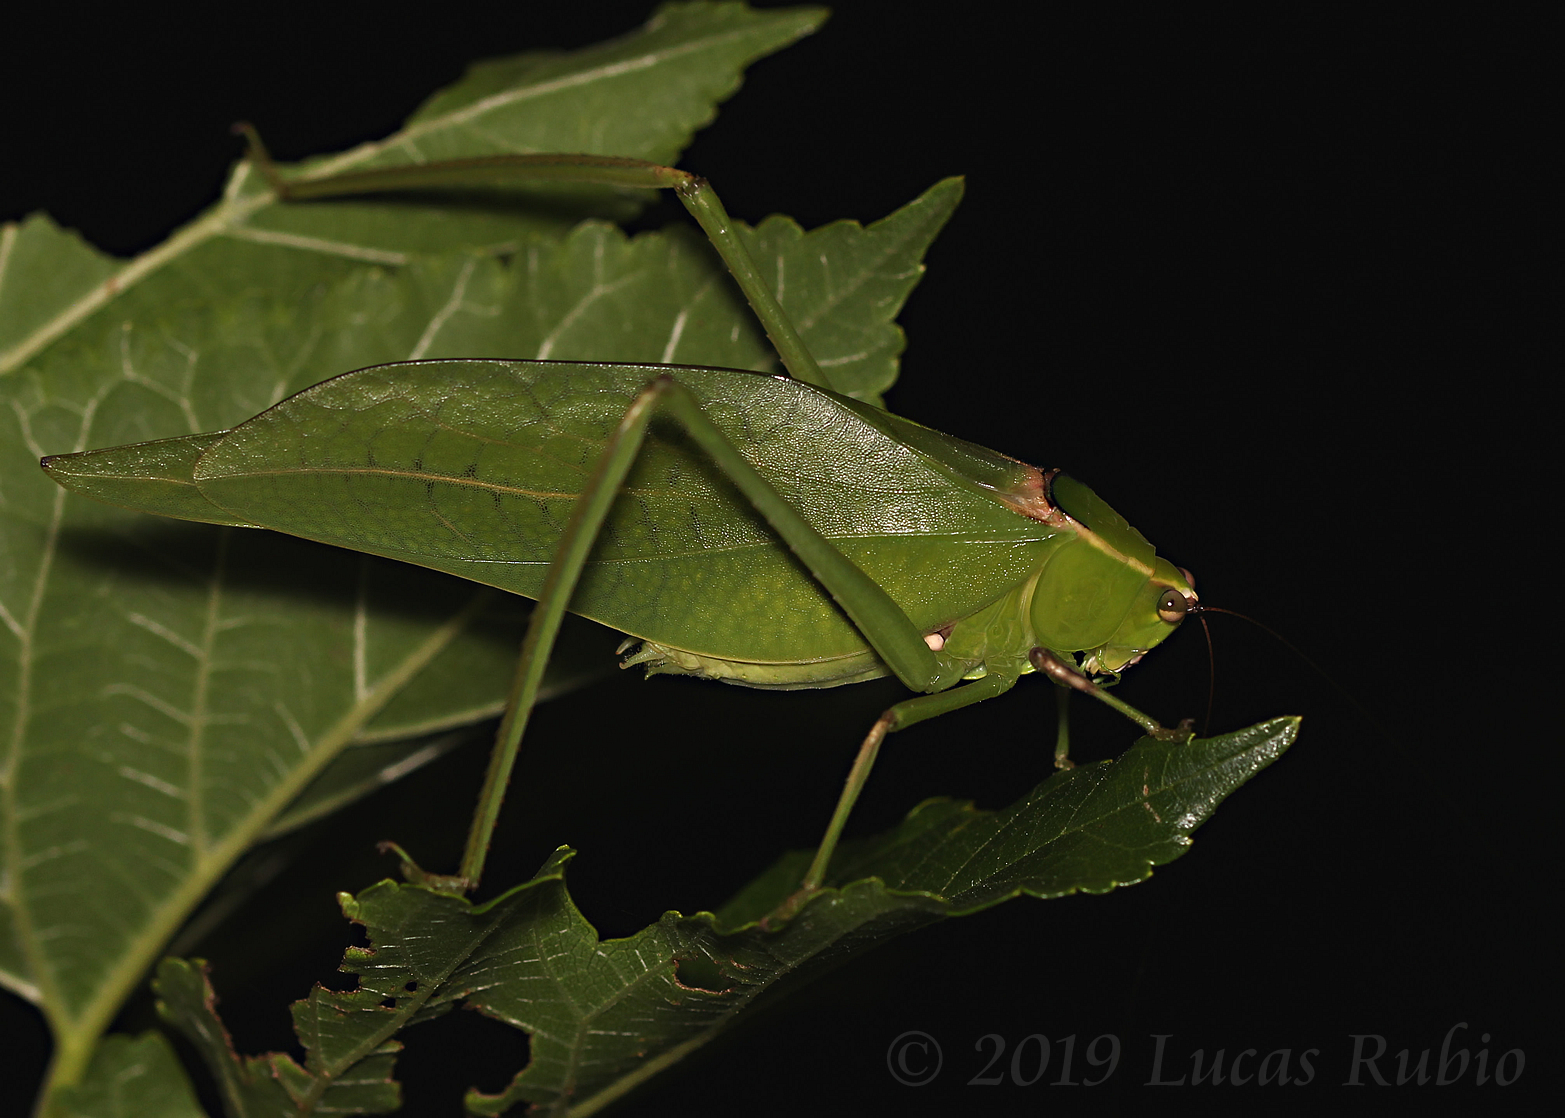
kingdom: Animalia
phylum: Arthropoda
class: Insecta
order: Orthoptera
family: Tettigoniidae
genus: Stilpnochlora
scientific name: Stilpnochlora nanna
